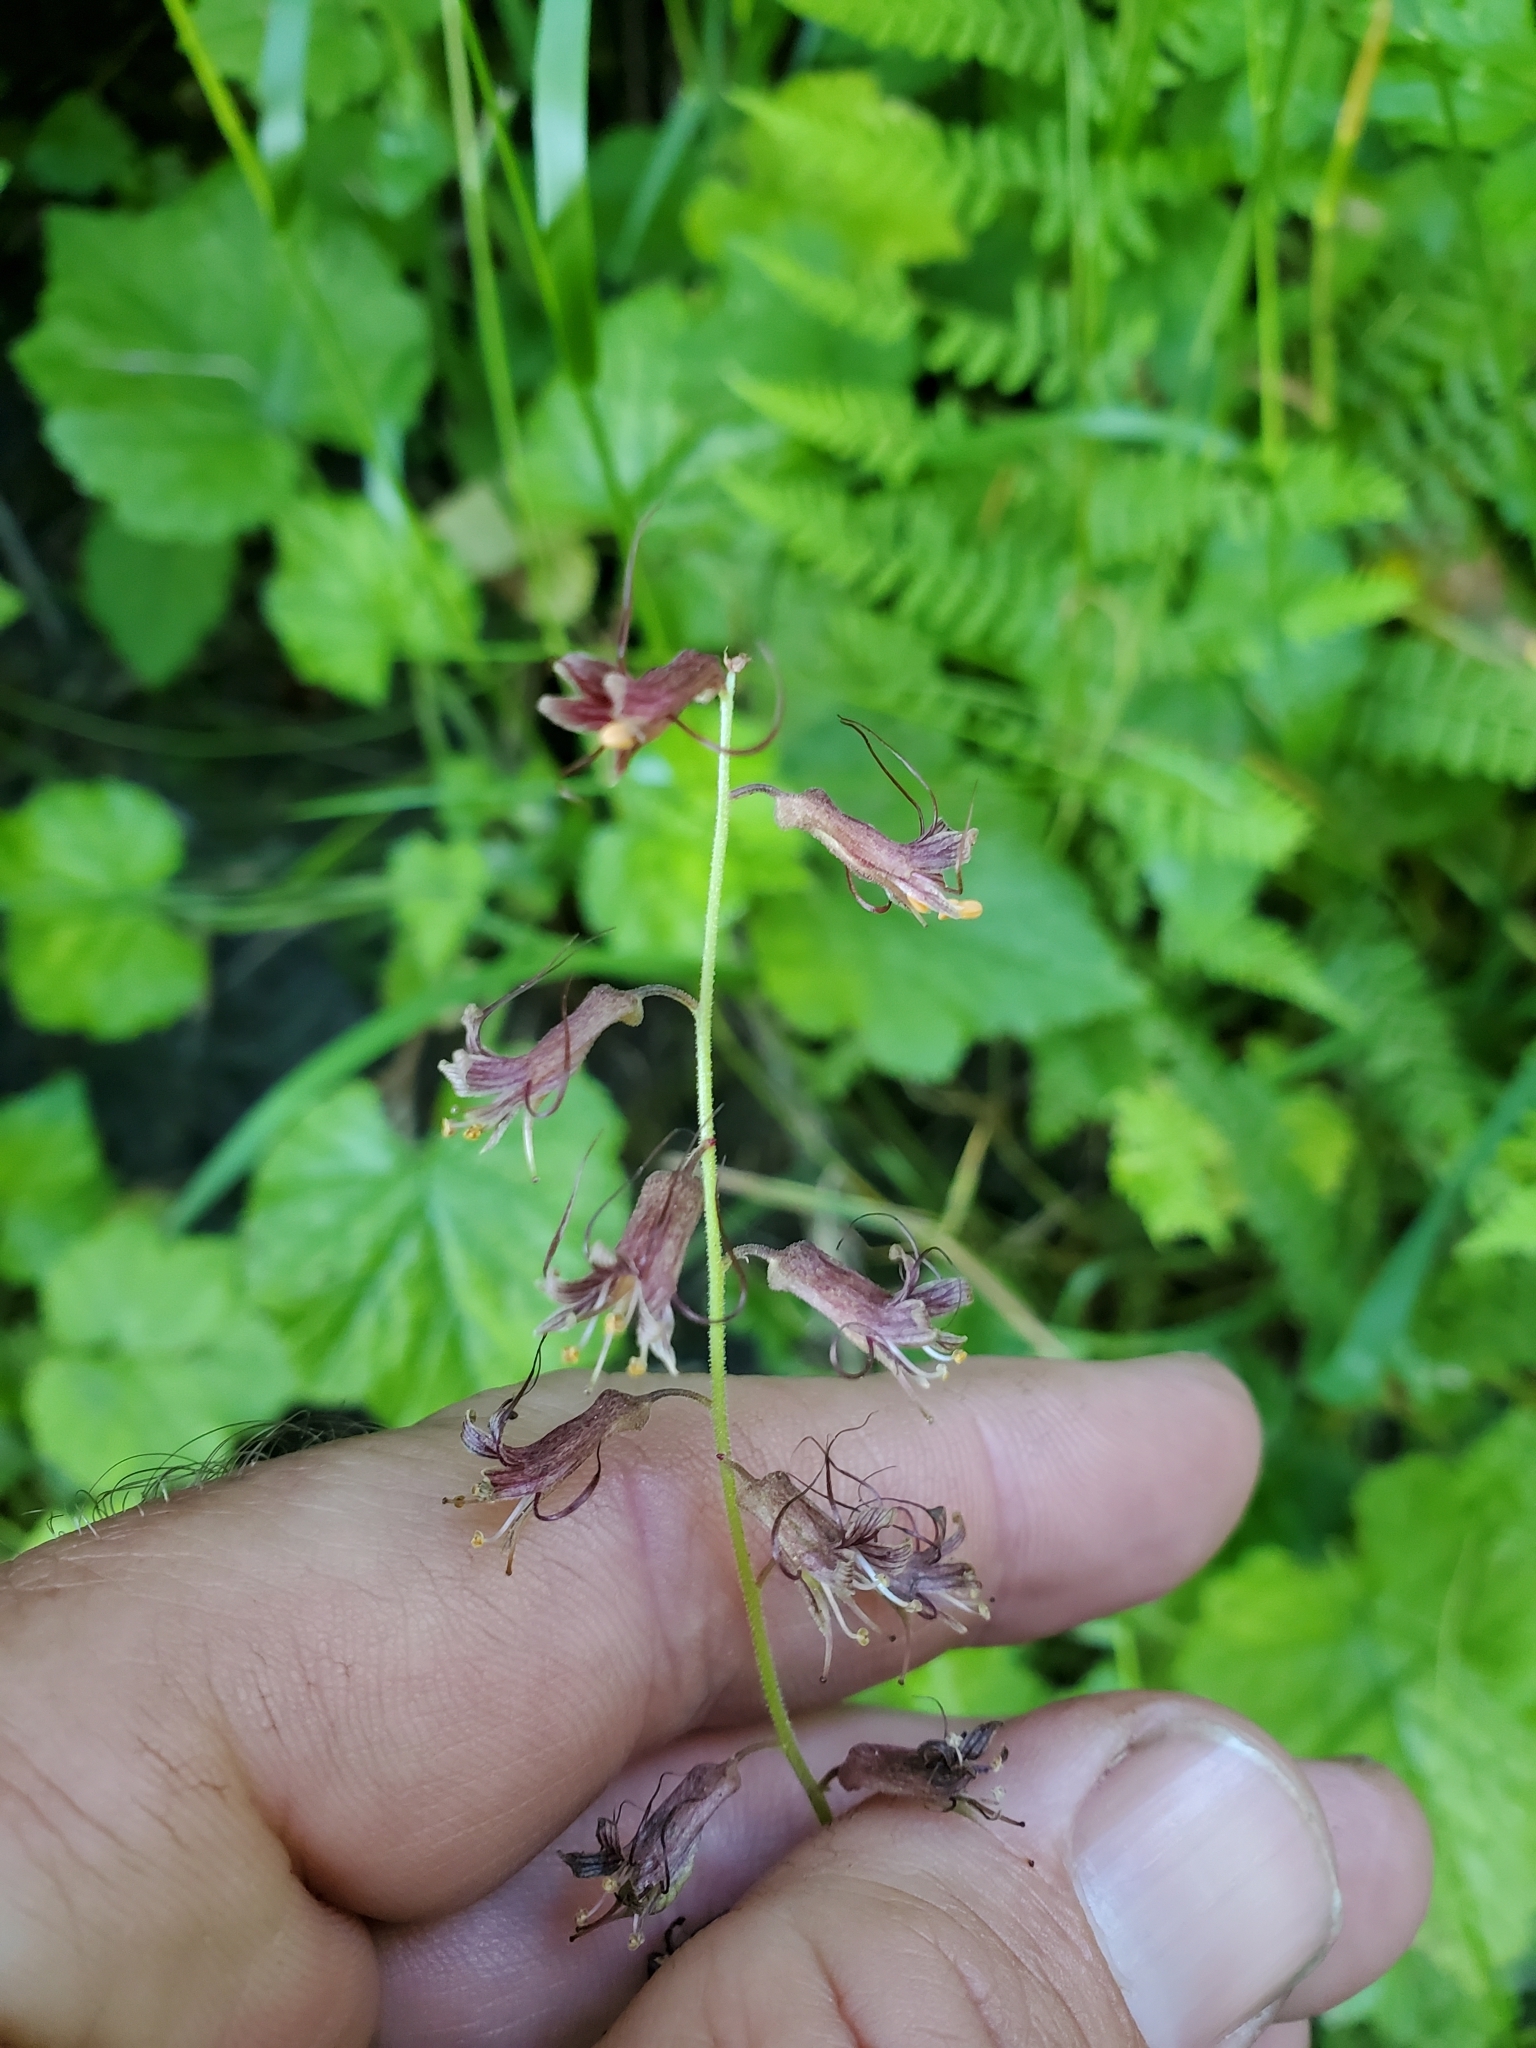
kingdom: Plantae
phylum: Tracheophyta
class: Magnoliopsida
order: Saxifragales
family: Saxifragaceae
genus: Tolmiea
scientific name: Tolmiea menziesii
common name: Pick-a-back-plant
